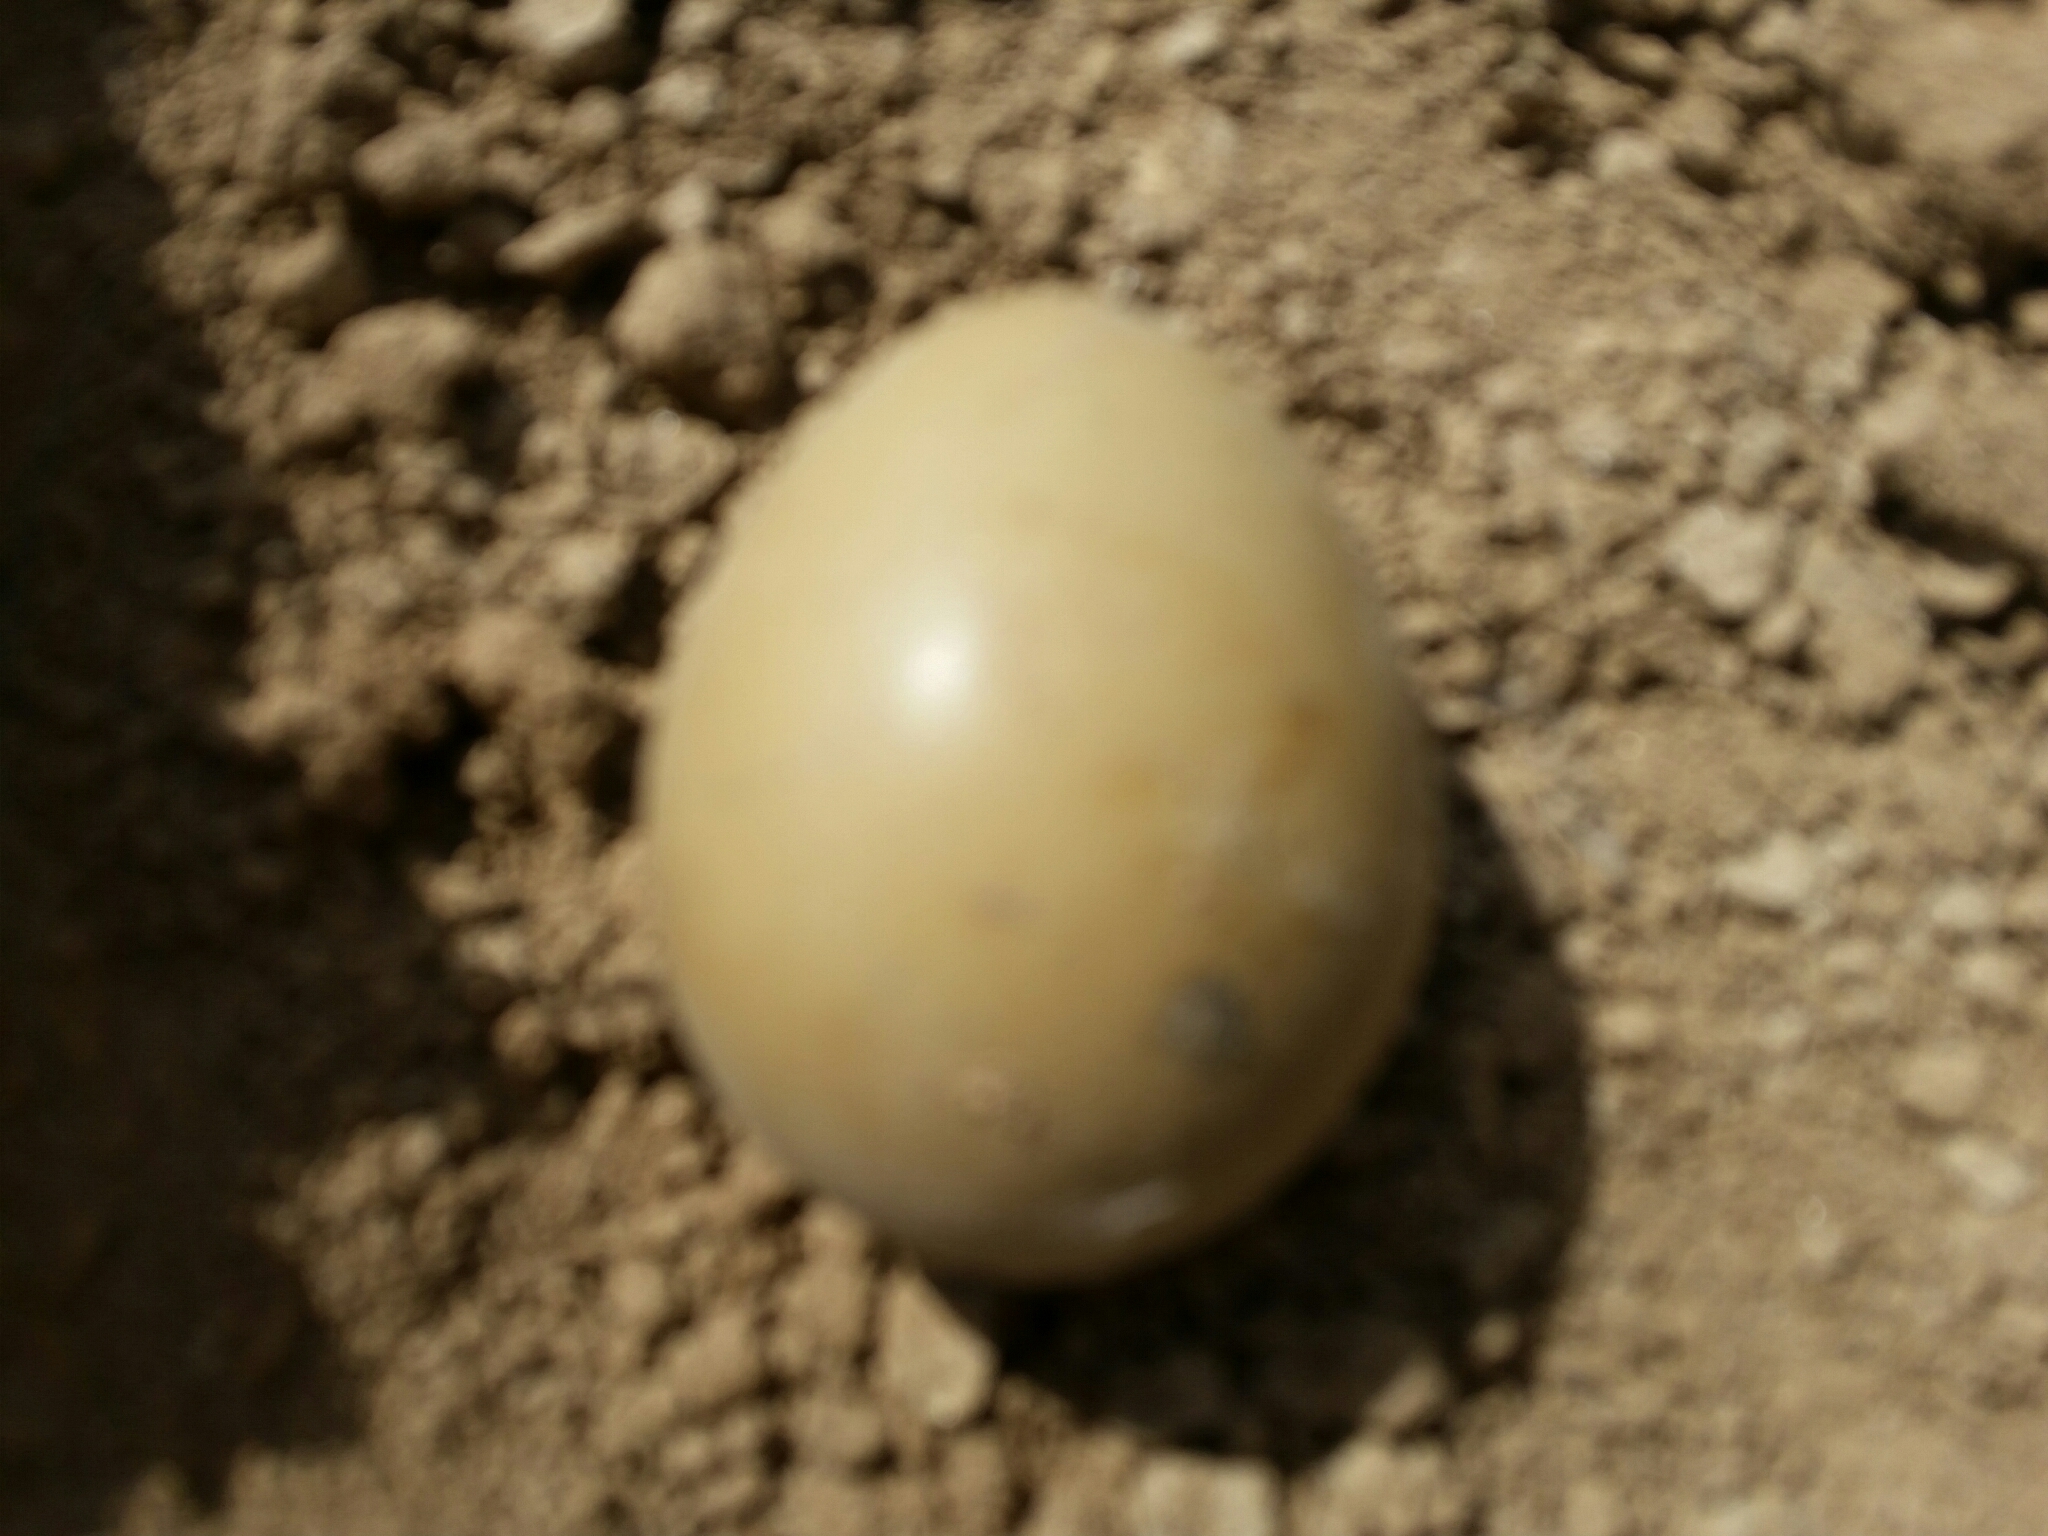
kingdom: Animalia
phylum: Chordata
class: Aves
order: Galliformes
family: Phasianidae
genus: Phasianus
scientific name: Phasianus colchicus
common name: Common pheasant
